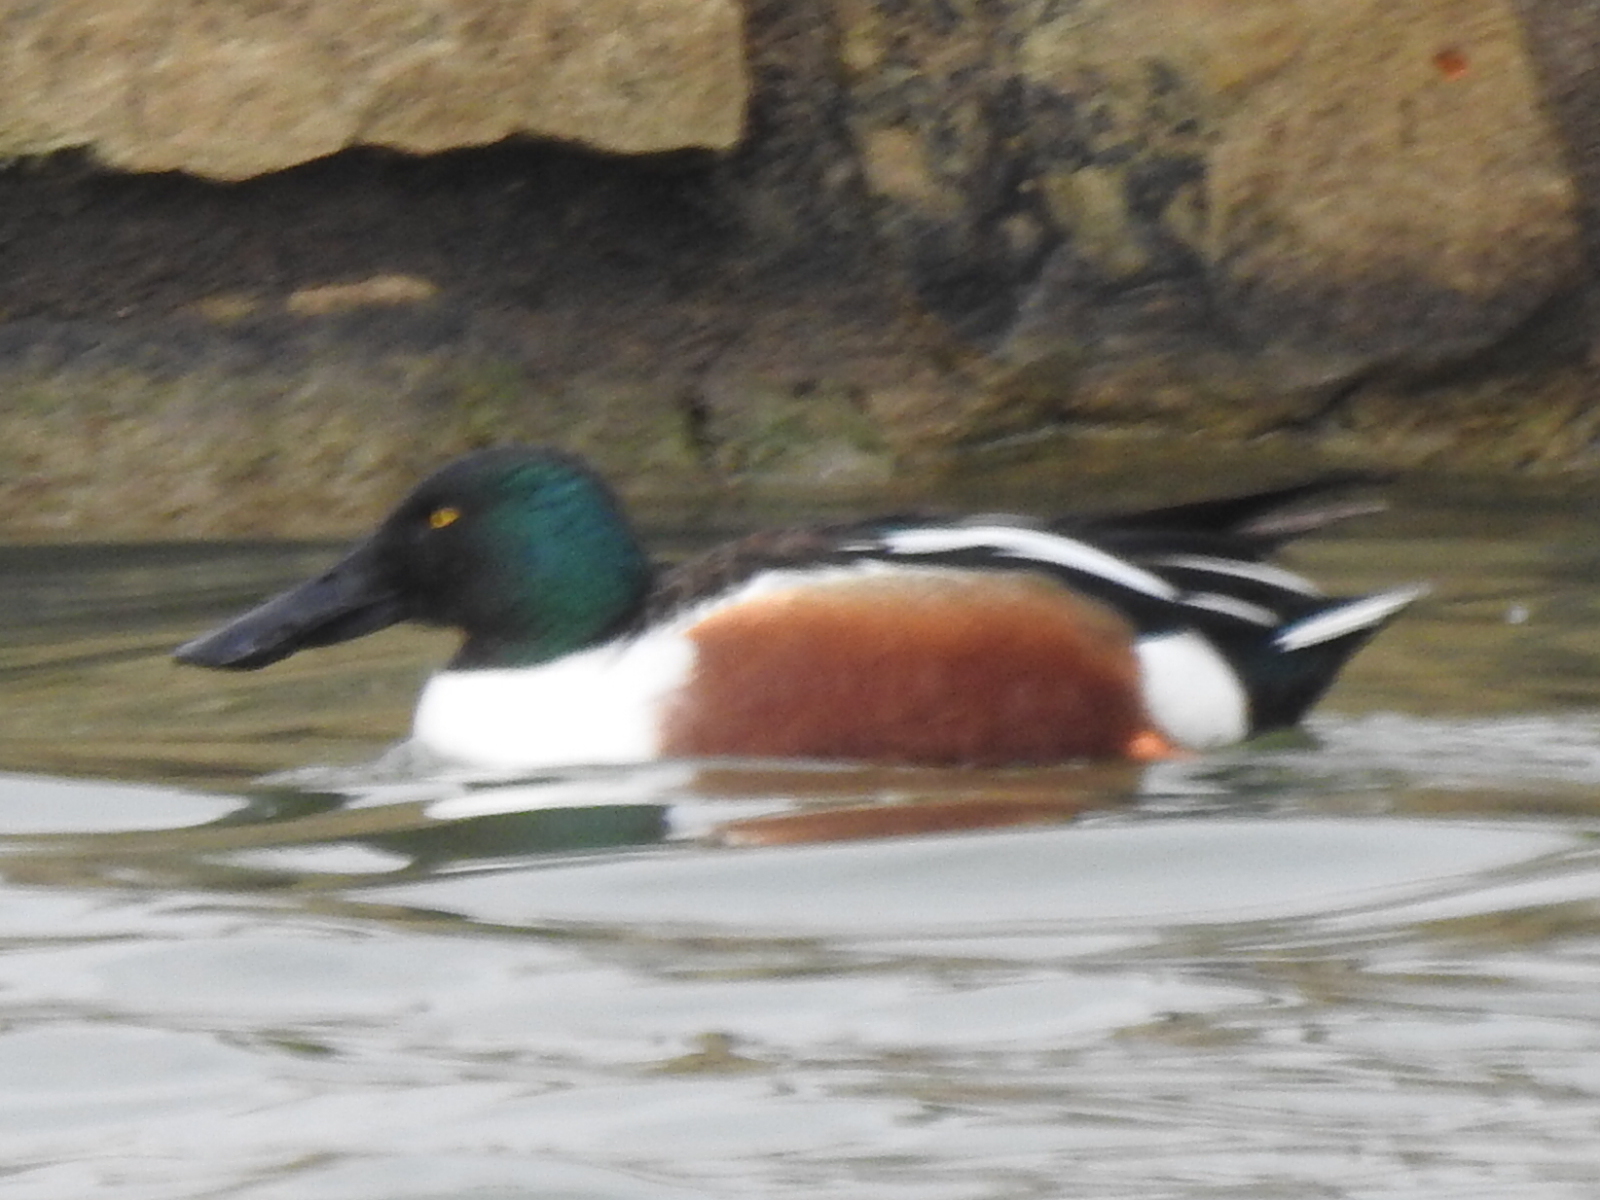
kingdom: Animalia
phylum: Chordata
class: Aves
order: Anseriformes
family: Anatidae
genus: Spatula
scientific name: Spatula clypeata
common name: Northern shoveler
